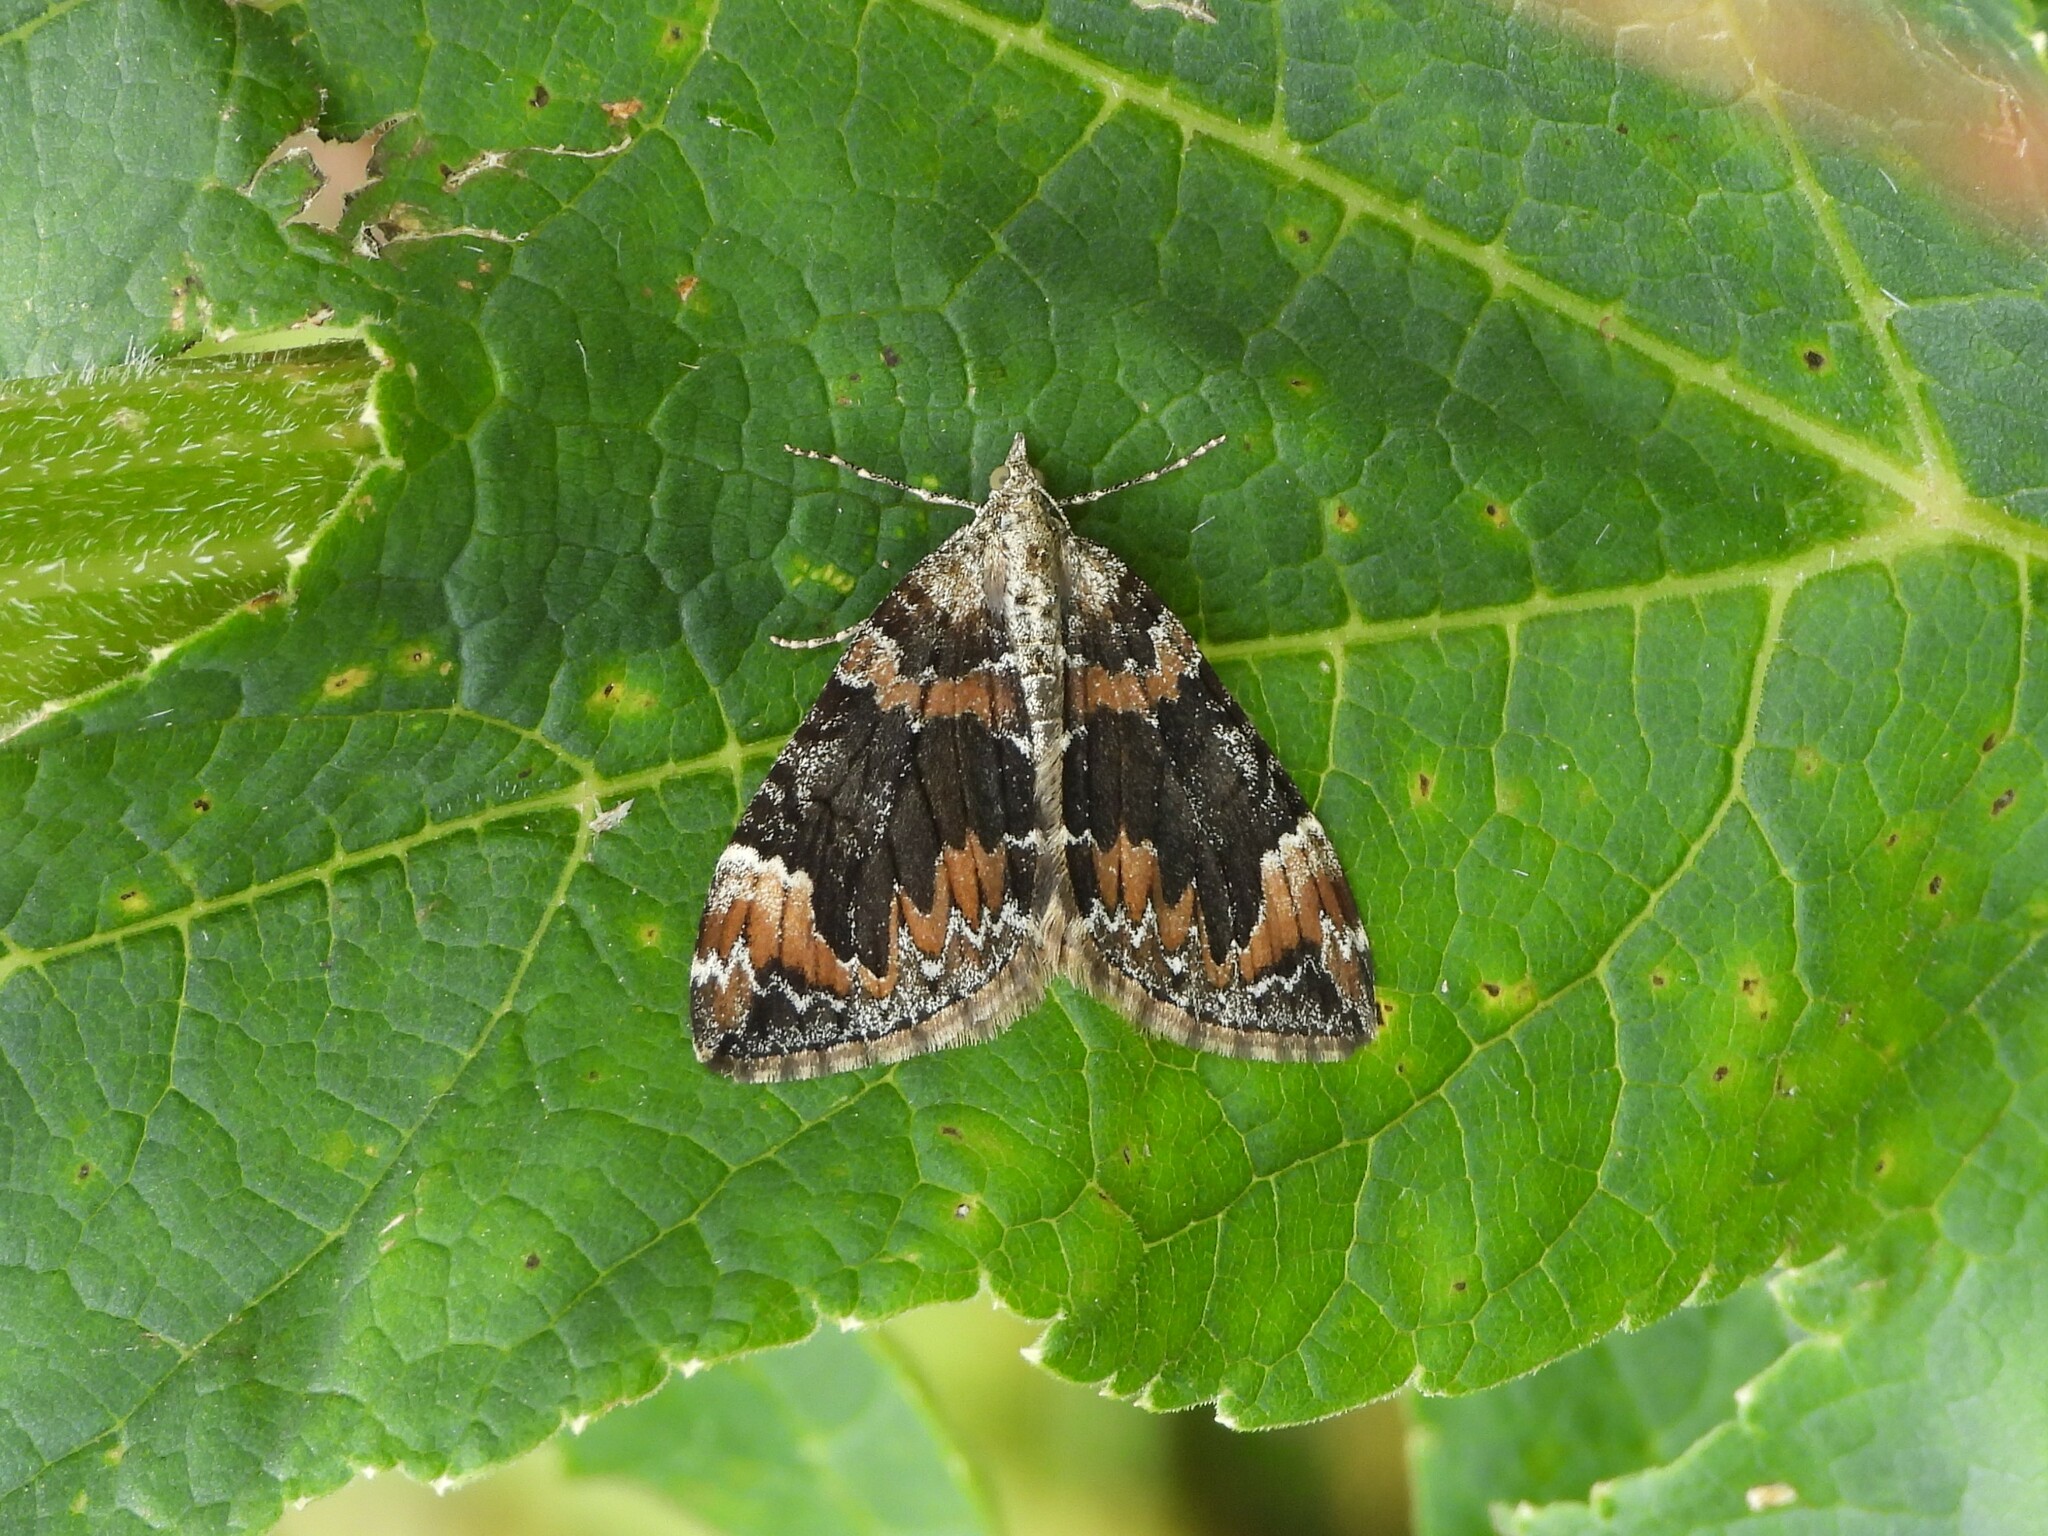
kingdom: Animalia
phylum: Arthropoda
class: Insecta
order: Lepidoptera
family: Geometridae
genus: Dysstroma
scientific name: Dysstroma citrata
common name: Dark marbled carpet
